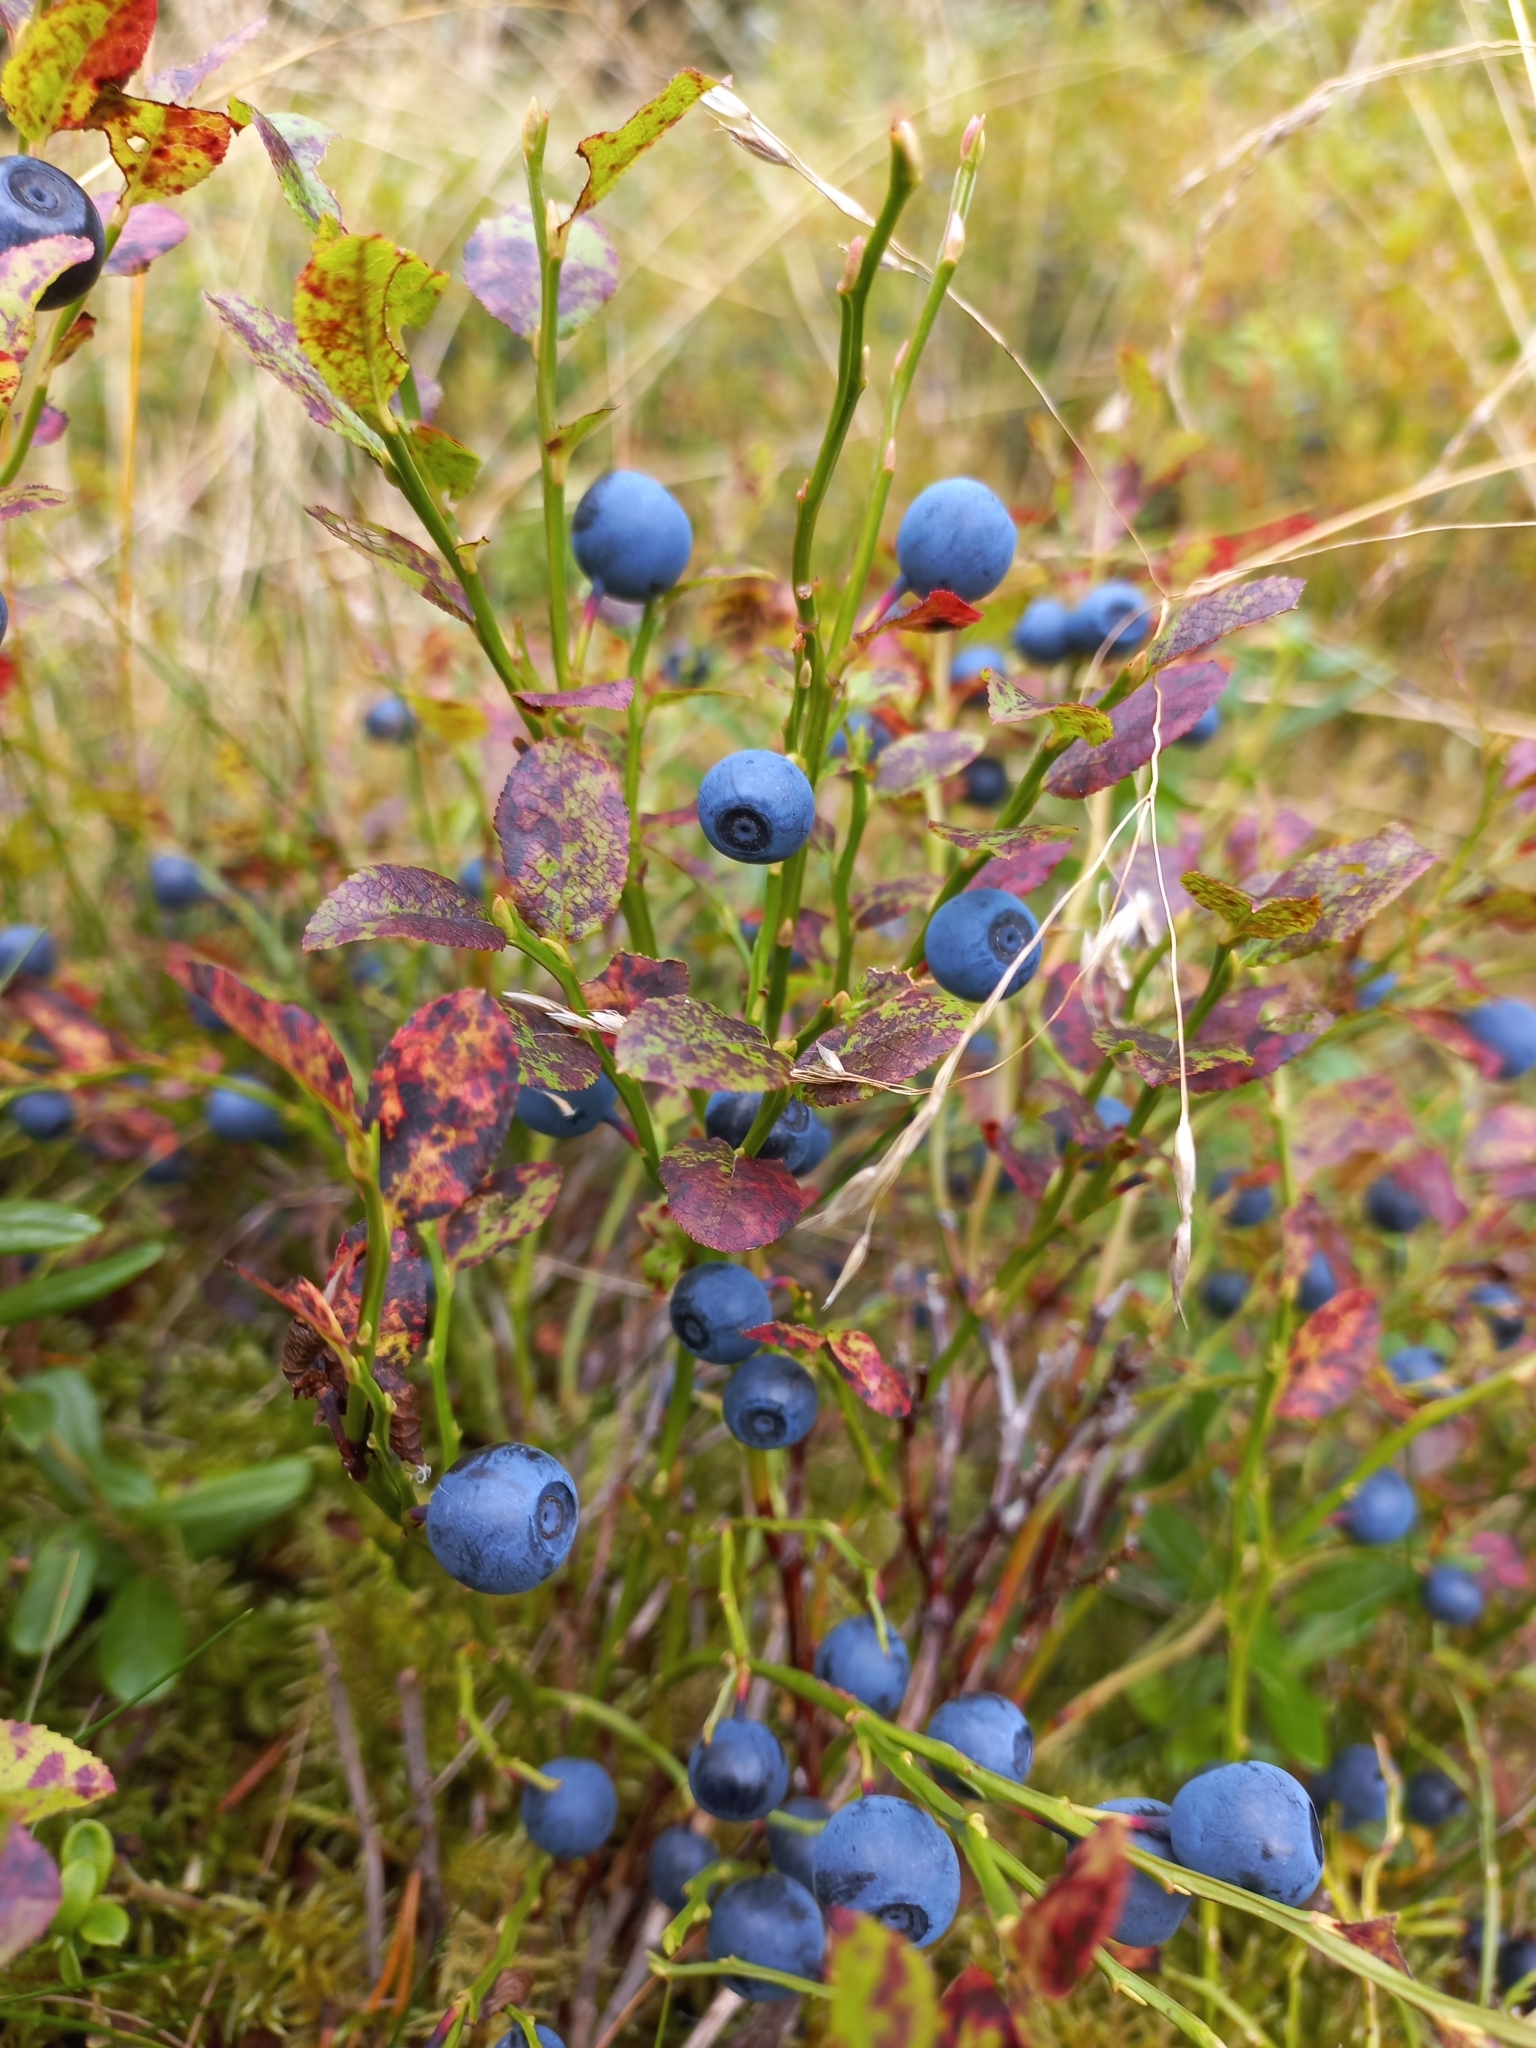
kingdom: Plantae
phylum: Tracheophyta
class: Magnoliopsida
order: Ericales
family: Ericaceae
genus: Vaccinium
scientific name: Vaccinium myrtillus
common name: Bilberry
